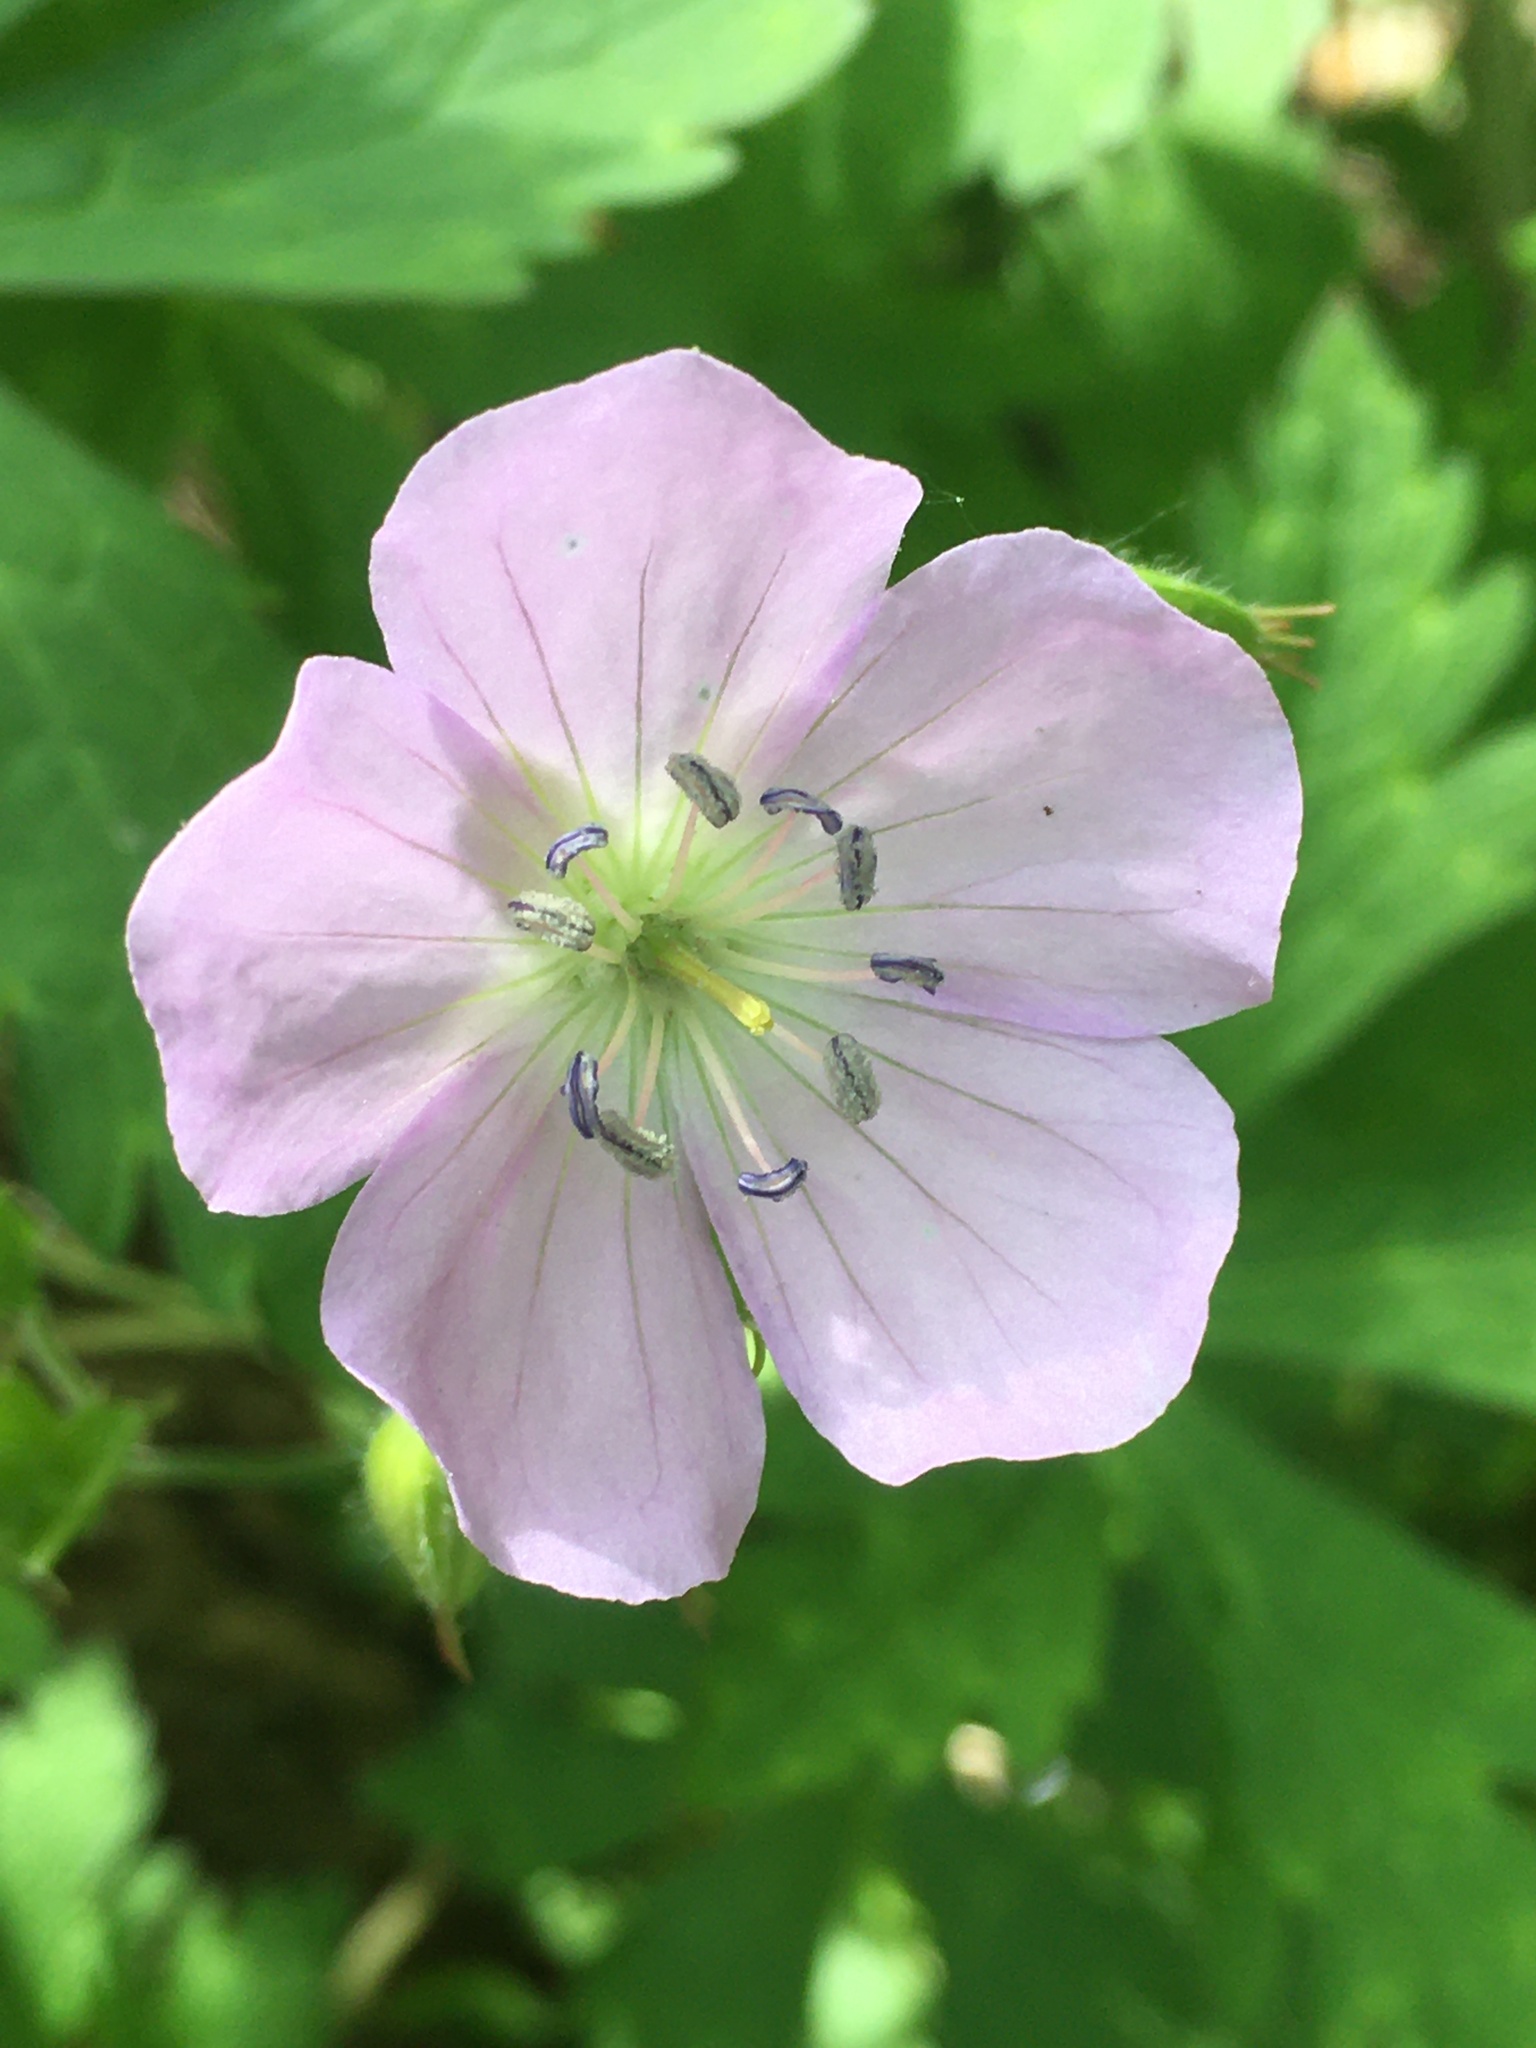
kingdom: Plantae
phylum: Tracheophyta
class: Magnoliopsida
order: Geraniales
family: Geraniaceae
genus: Geranium
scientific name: Geranium maculatum
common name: Spotted geranium
